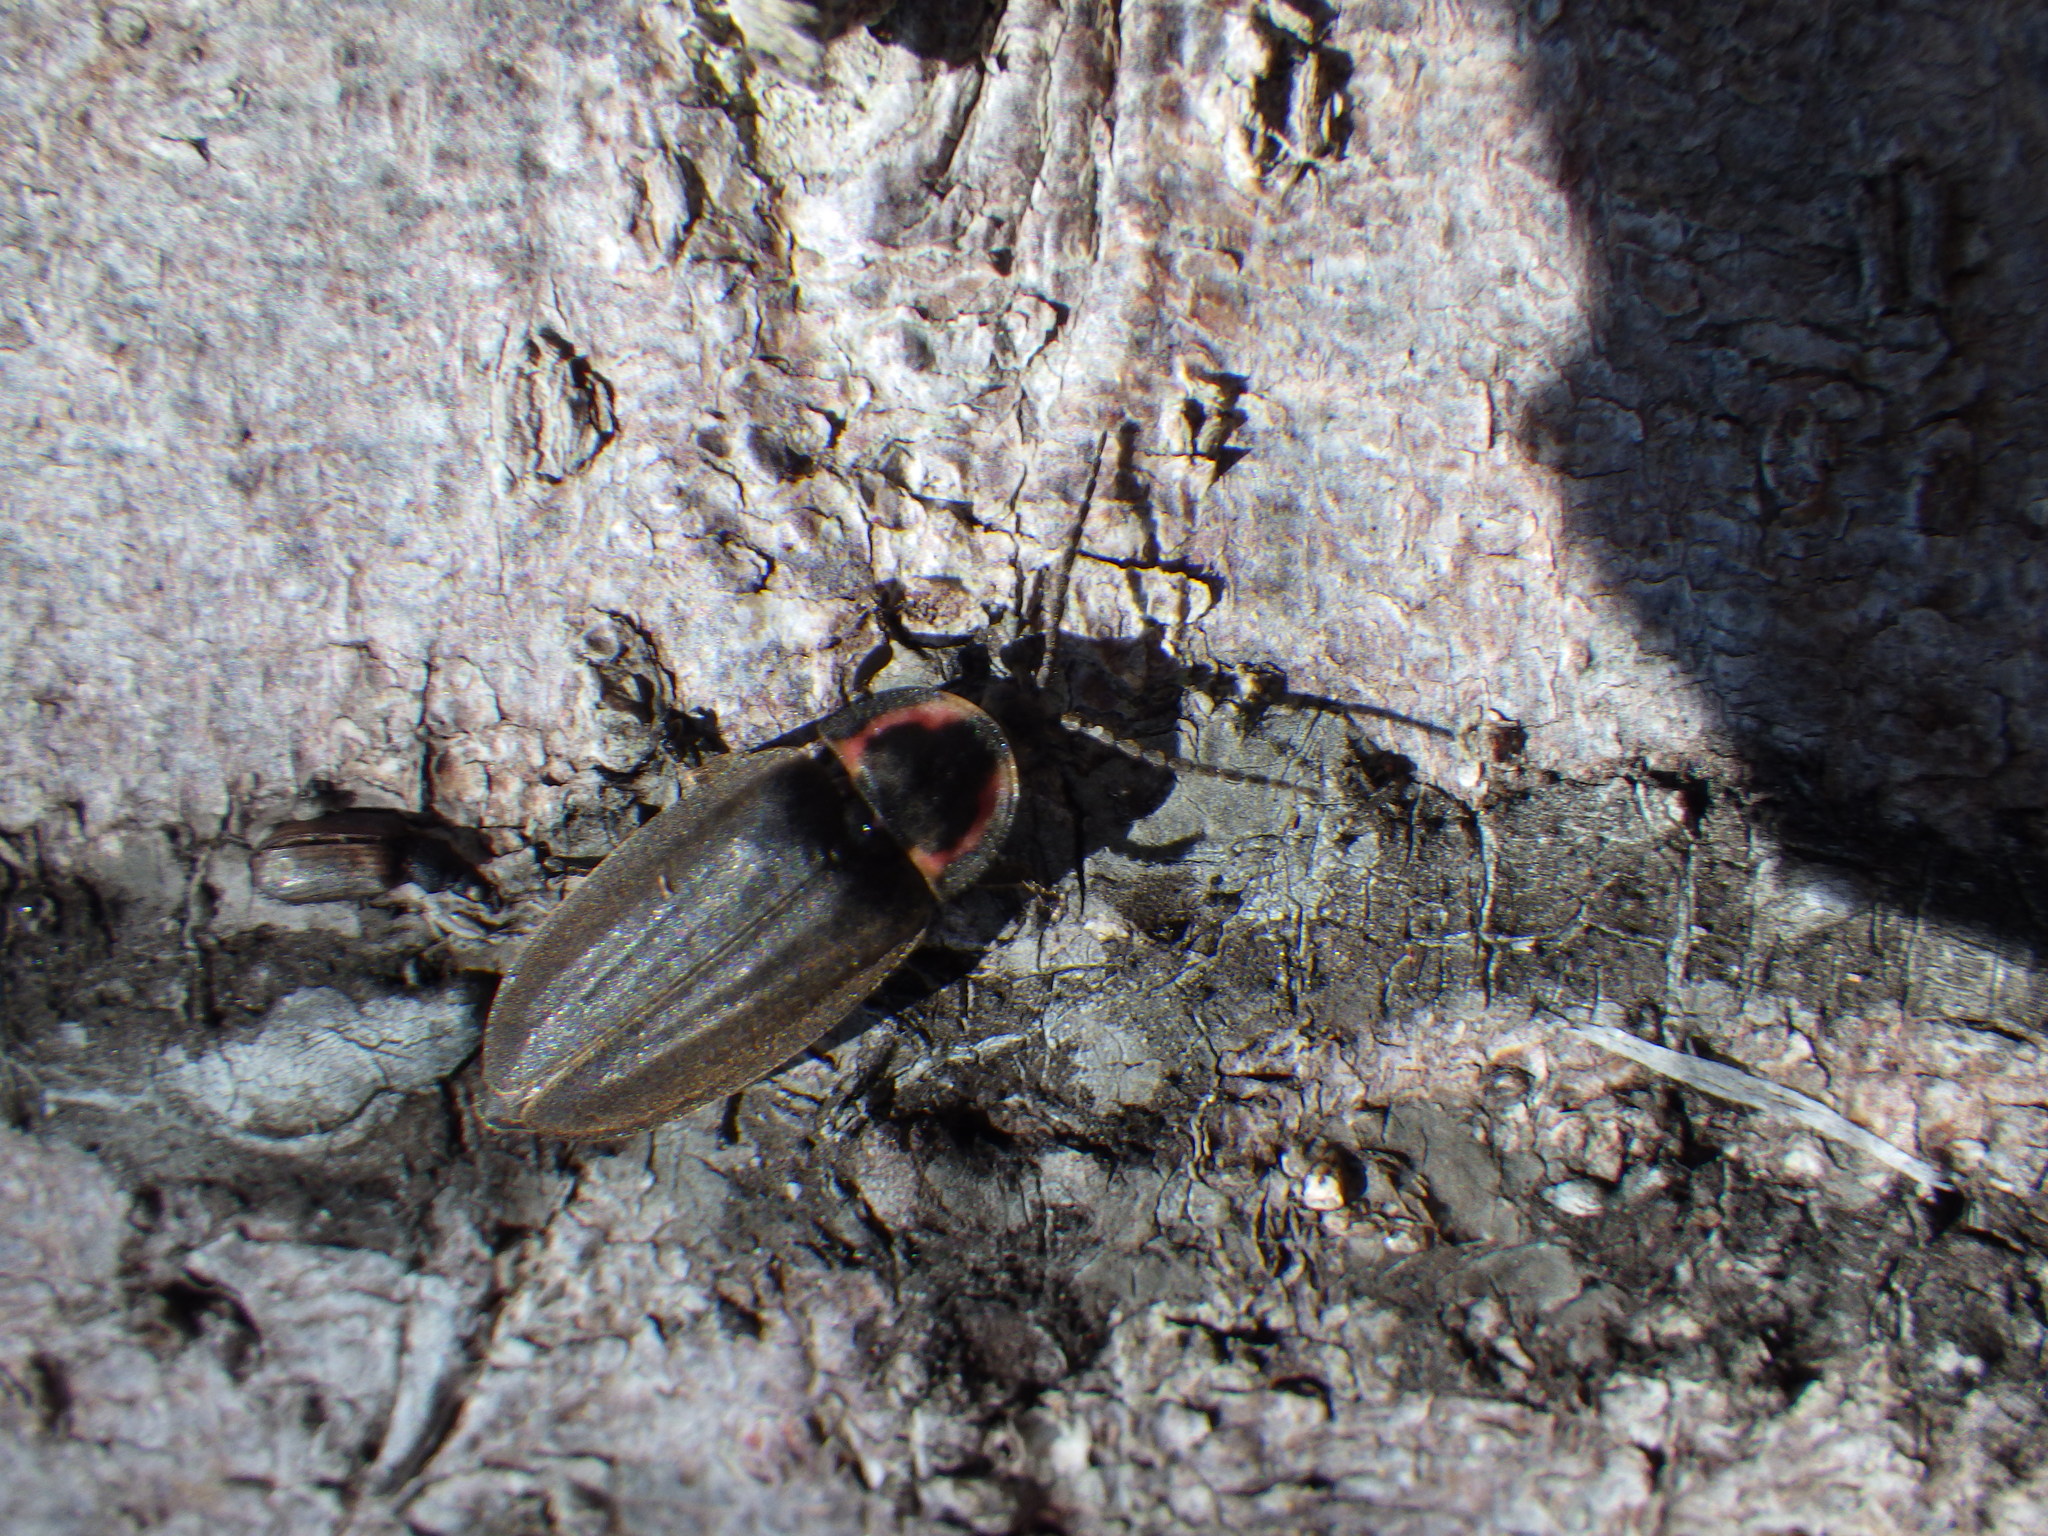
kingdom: Animalia
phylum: Arthropoda
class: Insecta
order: Coleoptera
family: Lampyridae
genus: Photinus
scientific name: Photinus corrusca
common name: Winter firefly
